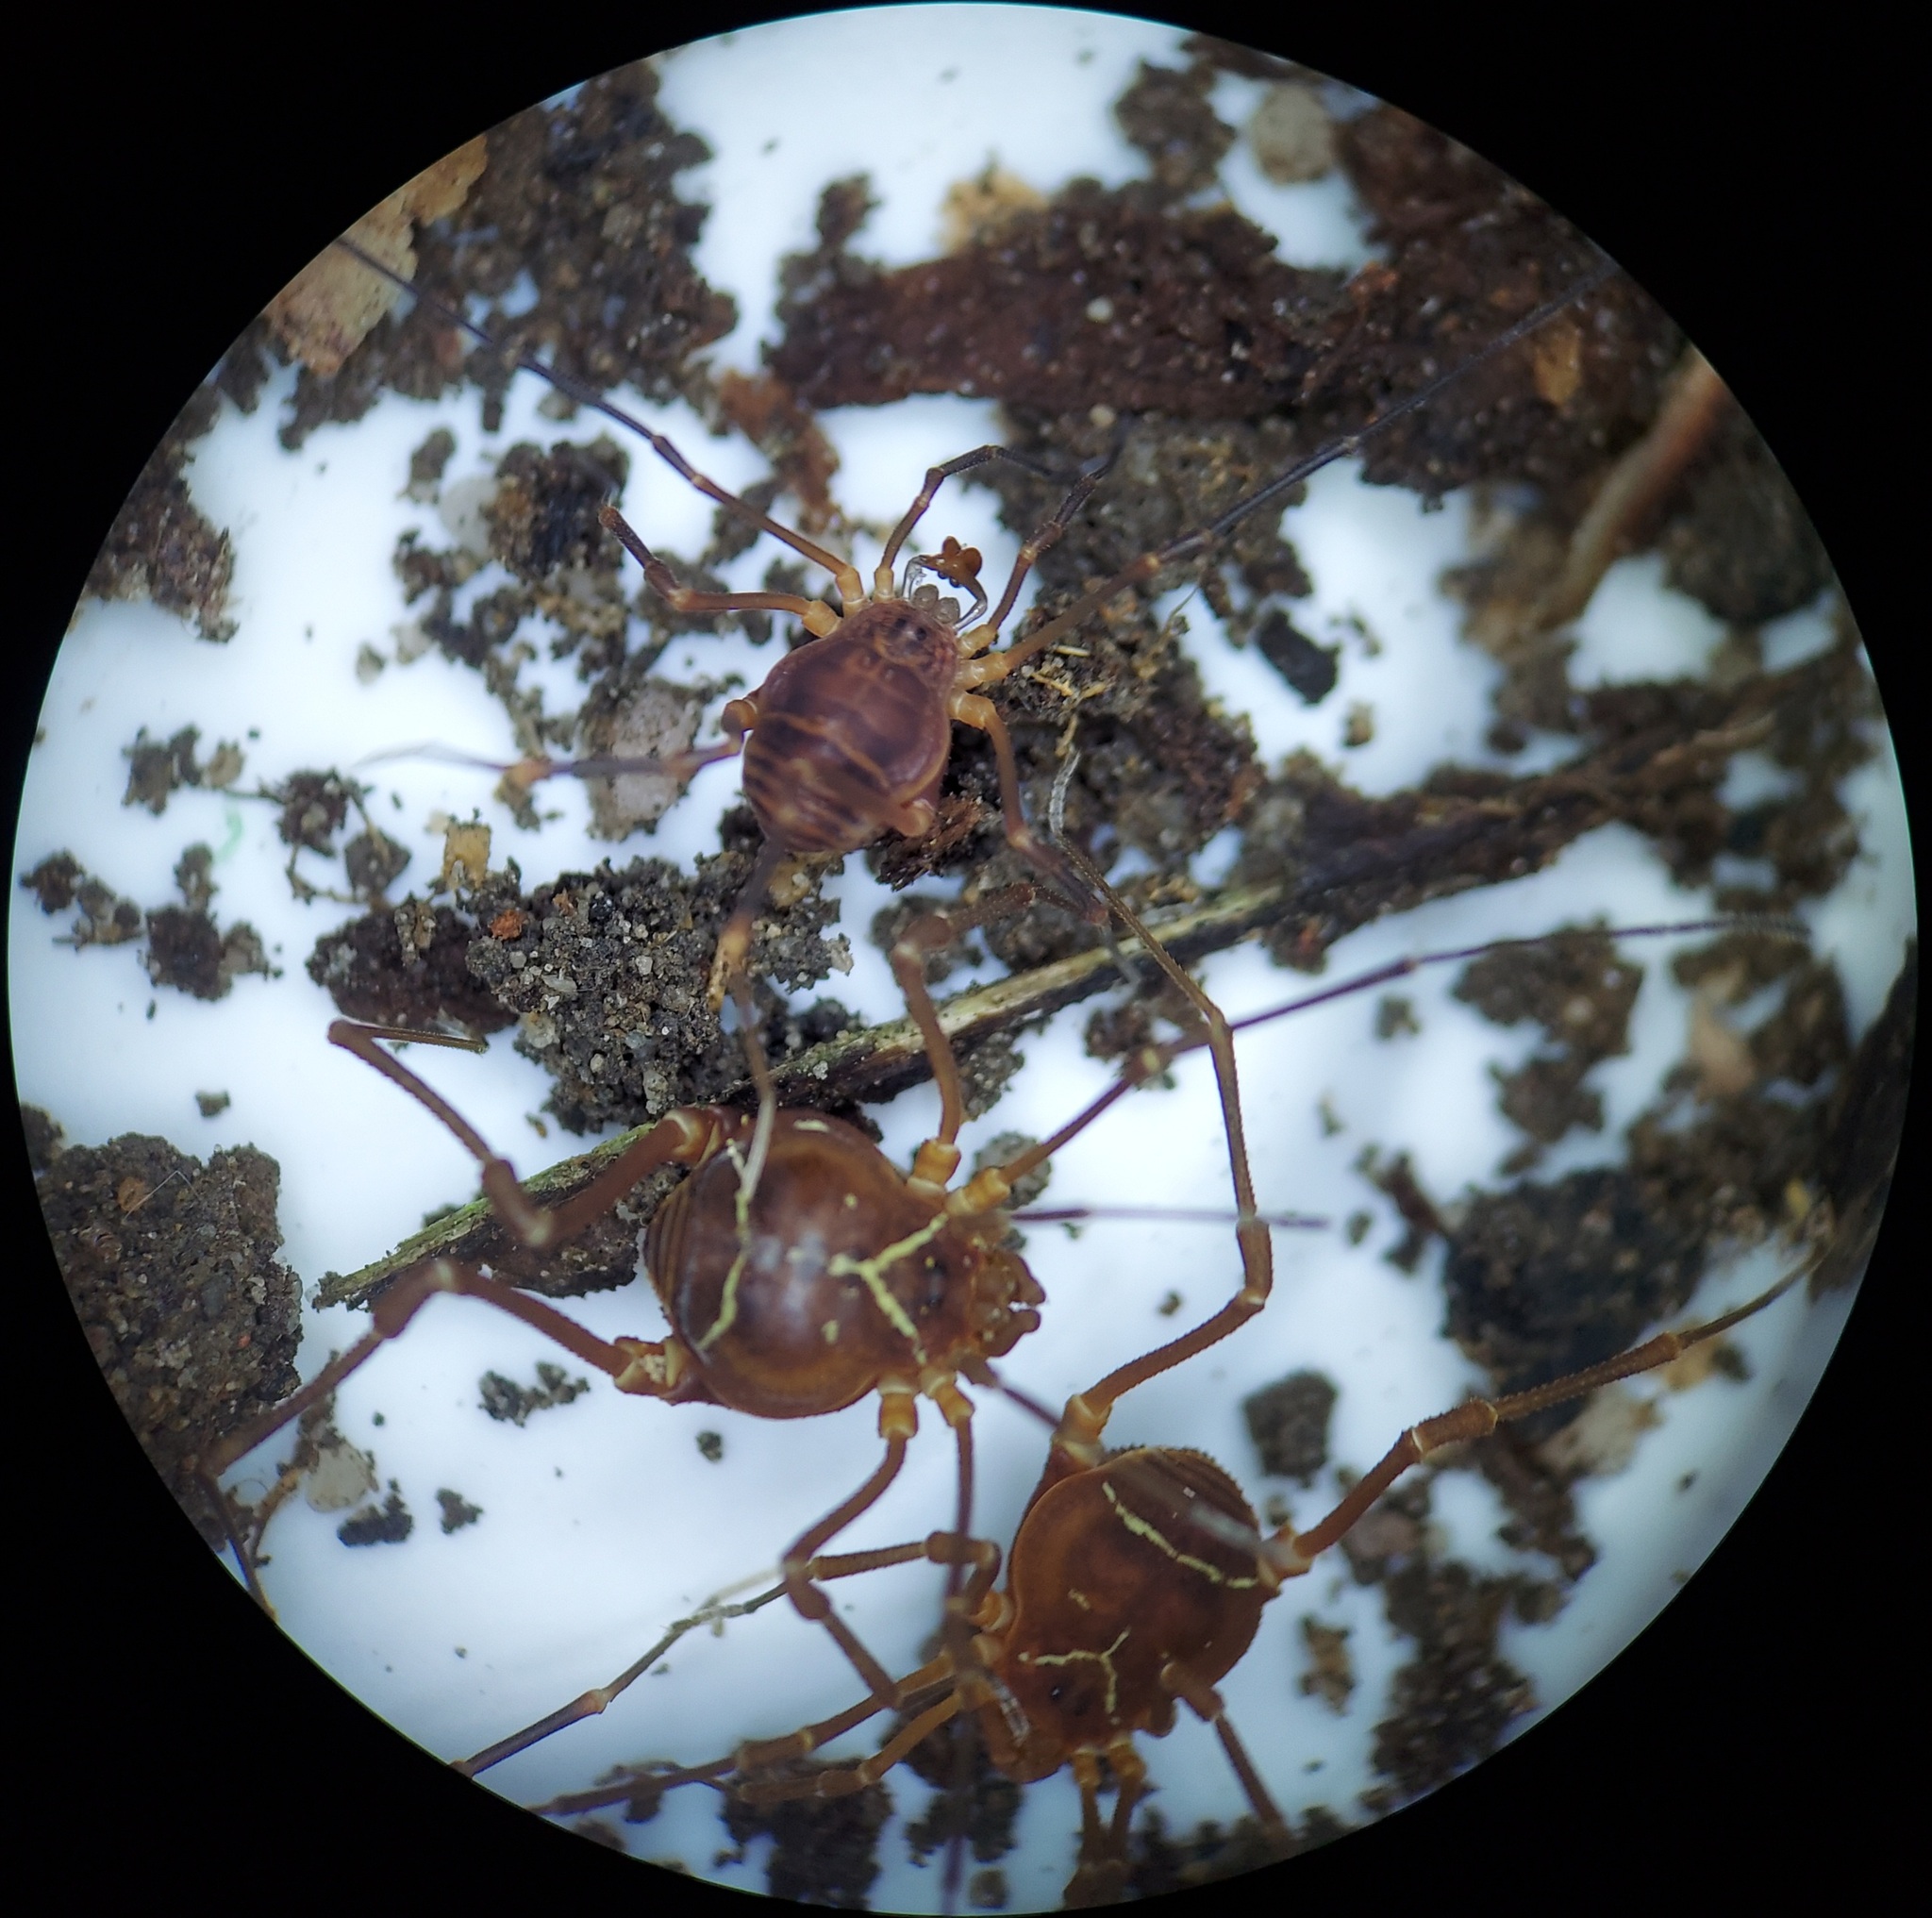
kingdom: Animalia
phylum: Arthropoda
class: Arachnida
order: Opiliones
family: Cosmetidae
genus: Libitioides
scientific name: Libitioides sayi
